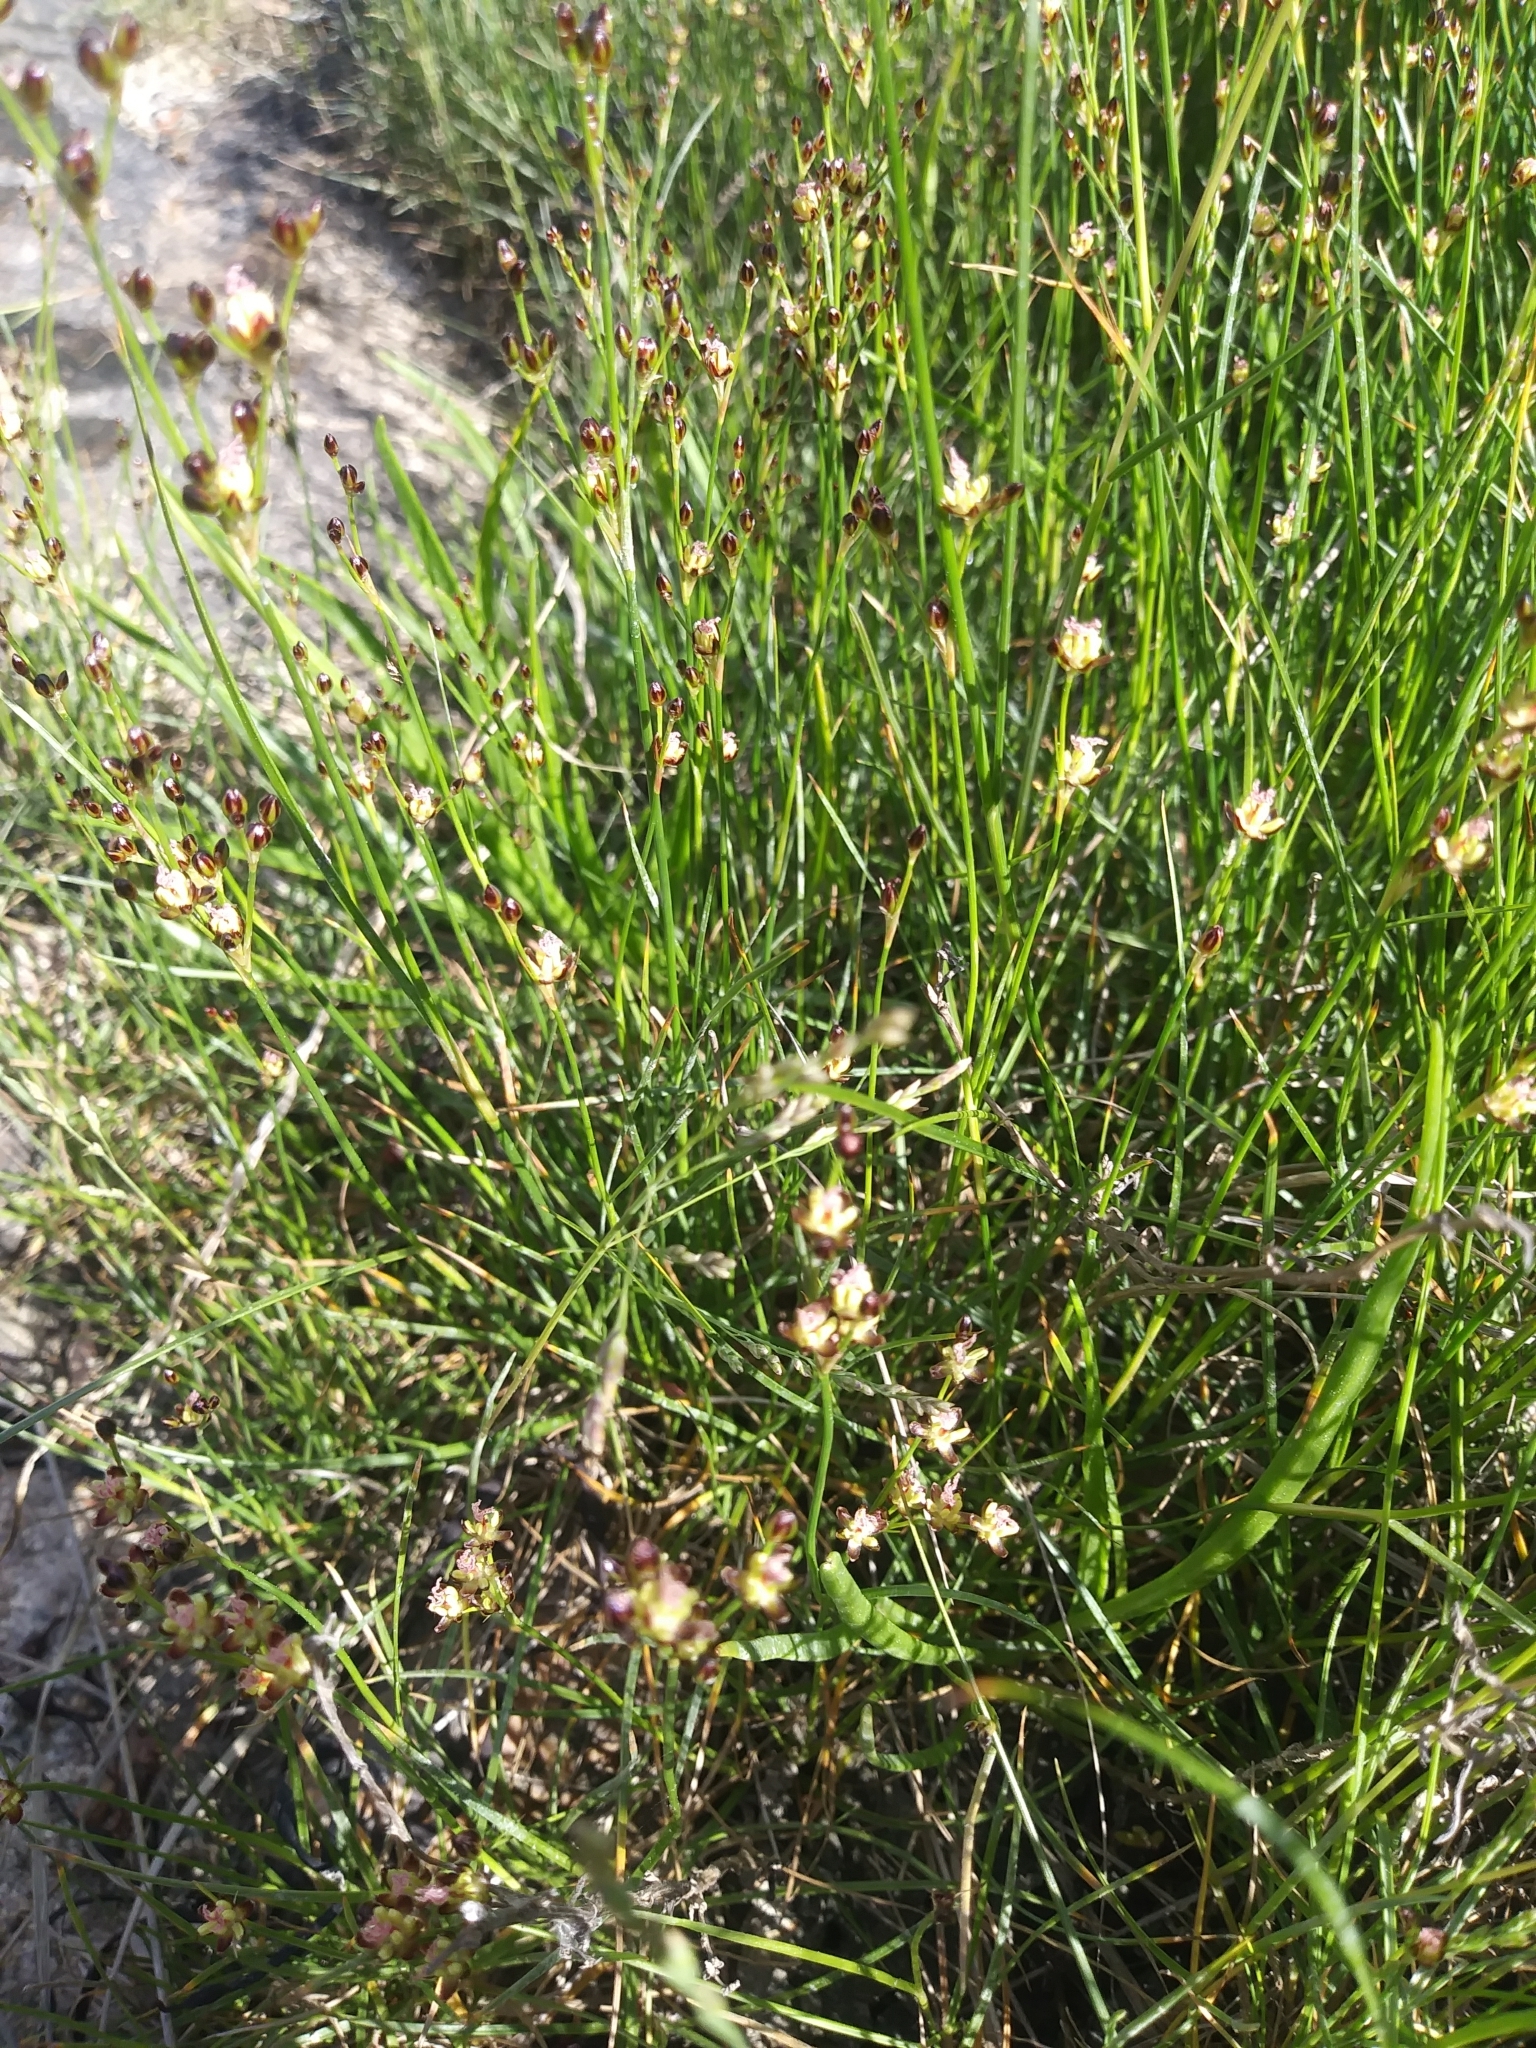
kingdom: Plantae
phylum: Tracheophyta
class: Liliopsida
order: Poales
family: Juncaceae
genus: Juncus
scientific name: Juncus gerardi
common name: Saltmarsh rush
